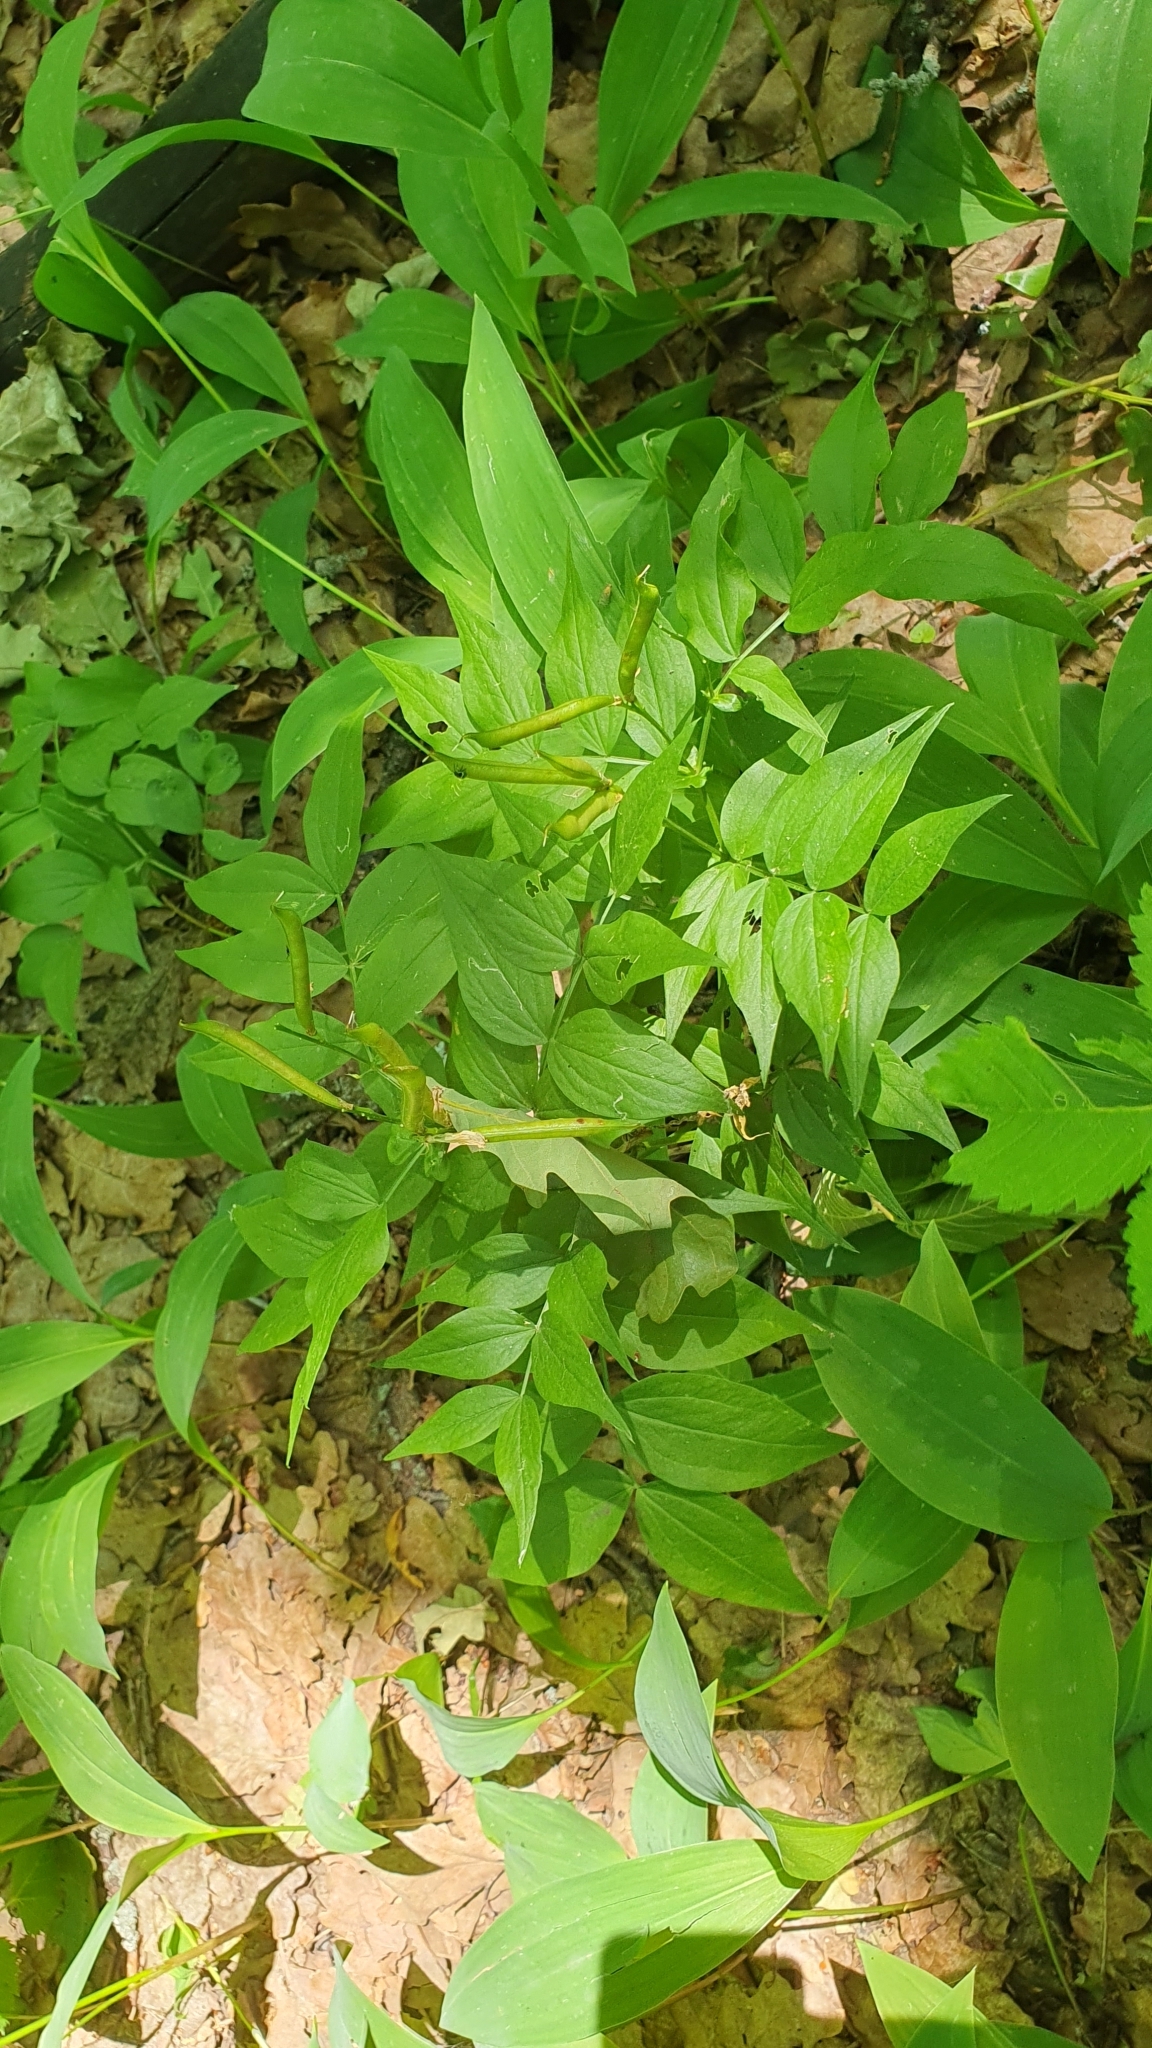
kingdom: Plantae
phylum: Tracheophyta
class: Magnoliopsida
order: Fabales
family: Fabaceae
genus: Lathyrus
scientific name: Lathyrus vernus
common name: Spring pea
